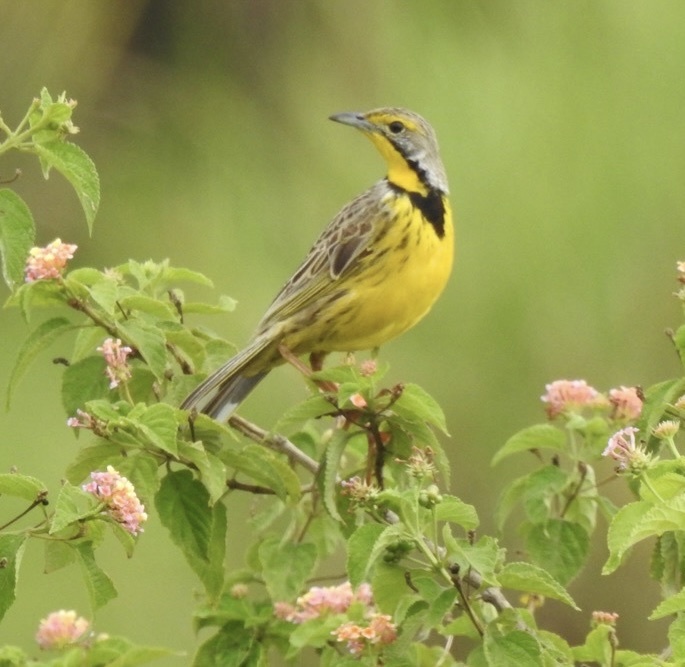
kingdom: Animalia
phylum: Chordata
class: Aves
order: Passeriformes
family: Motacillidae
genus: Macronyx
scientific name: Macronyx croceus
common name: Yellow-throated longclaw
